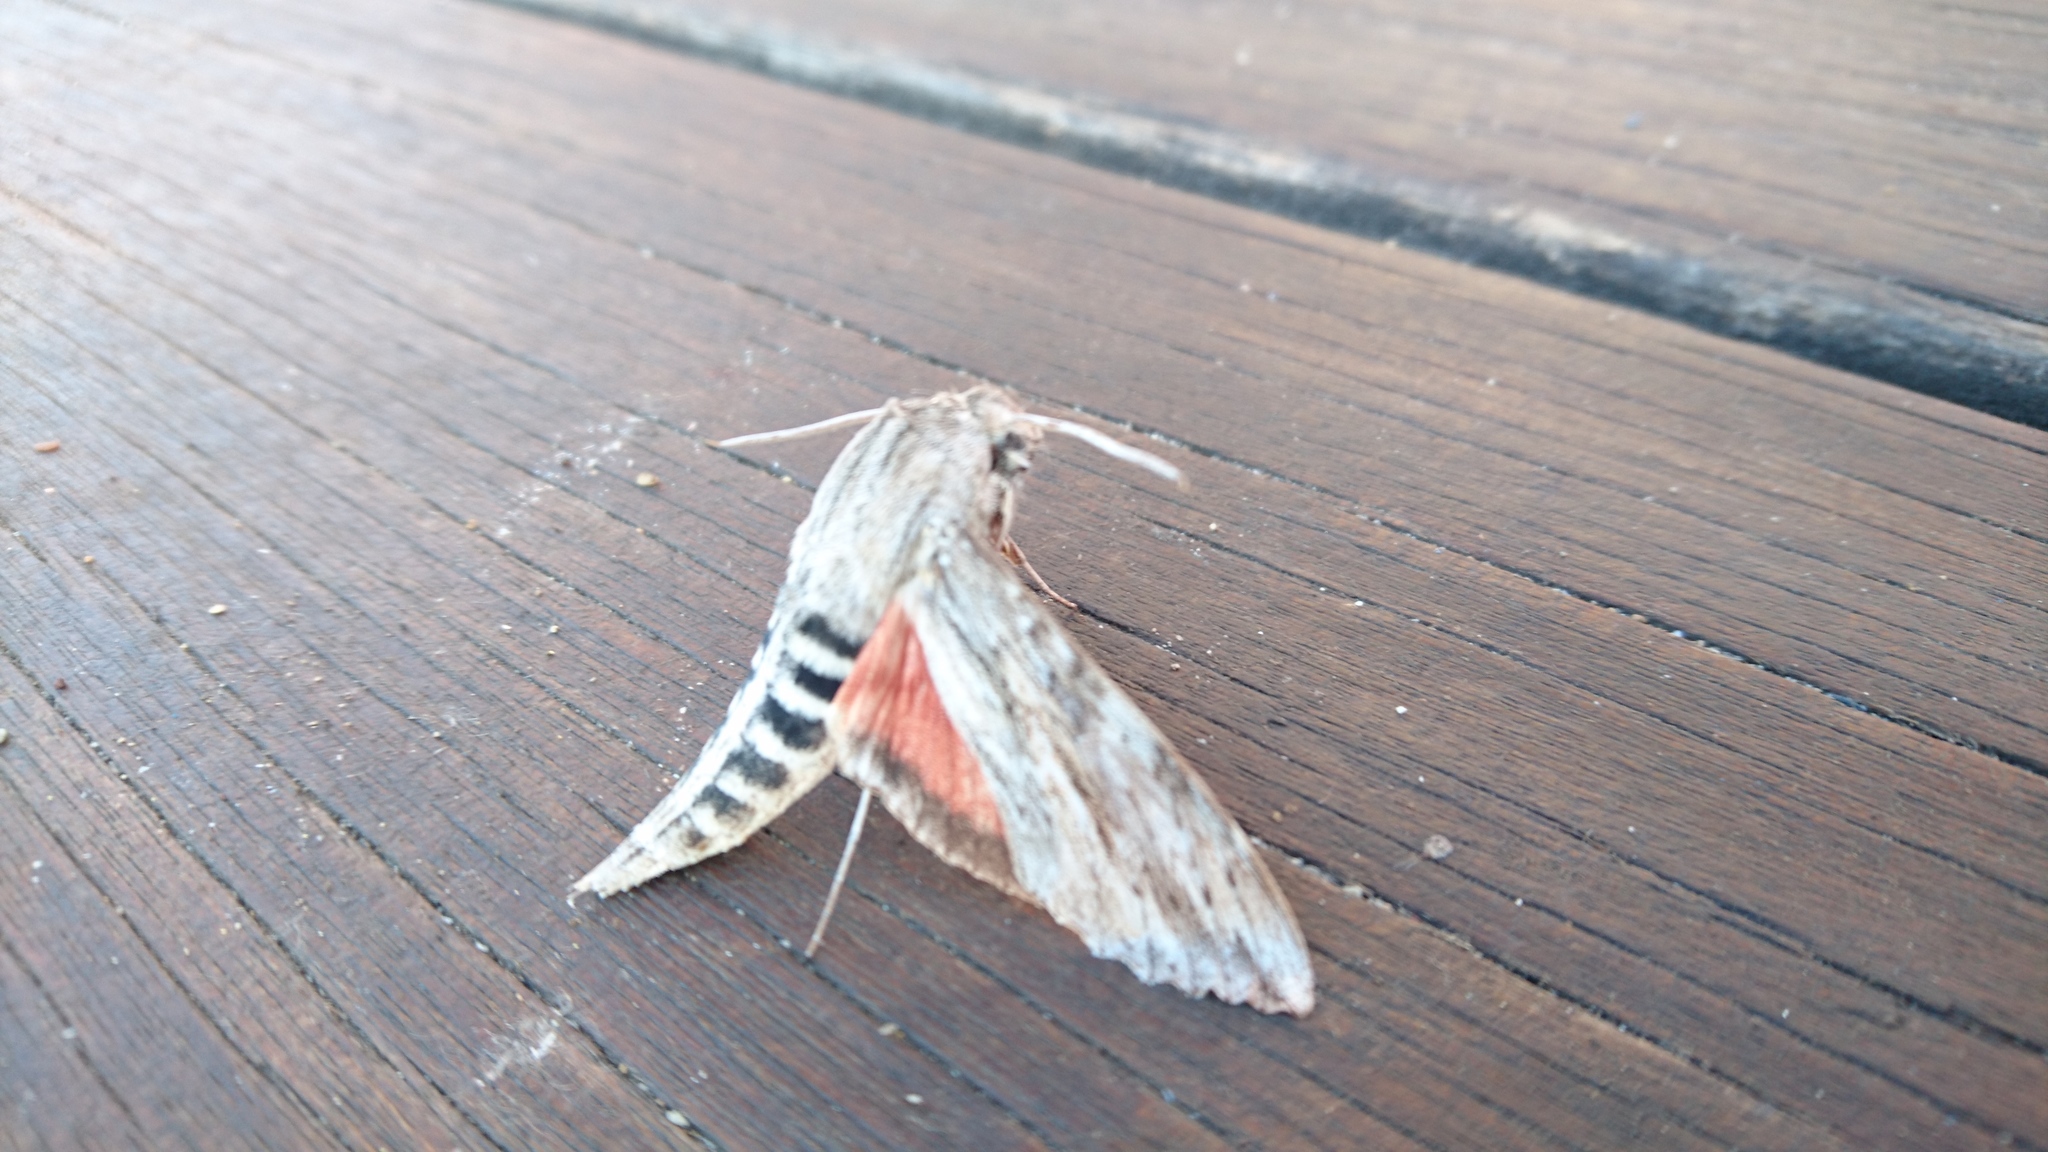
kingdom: Animalia
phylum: Arthropoda
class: Insecta
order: Lepidoptera
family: Sphingidae
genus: Erinnyis
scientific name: Erinnyis ello
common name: Ello sphinx
